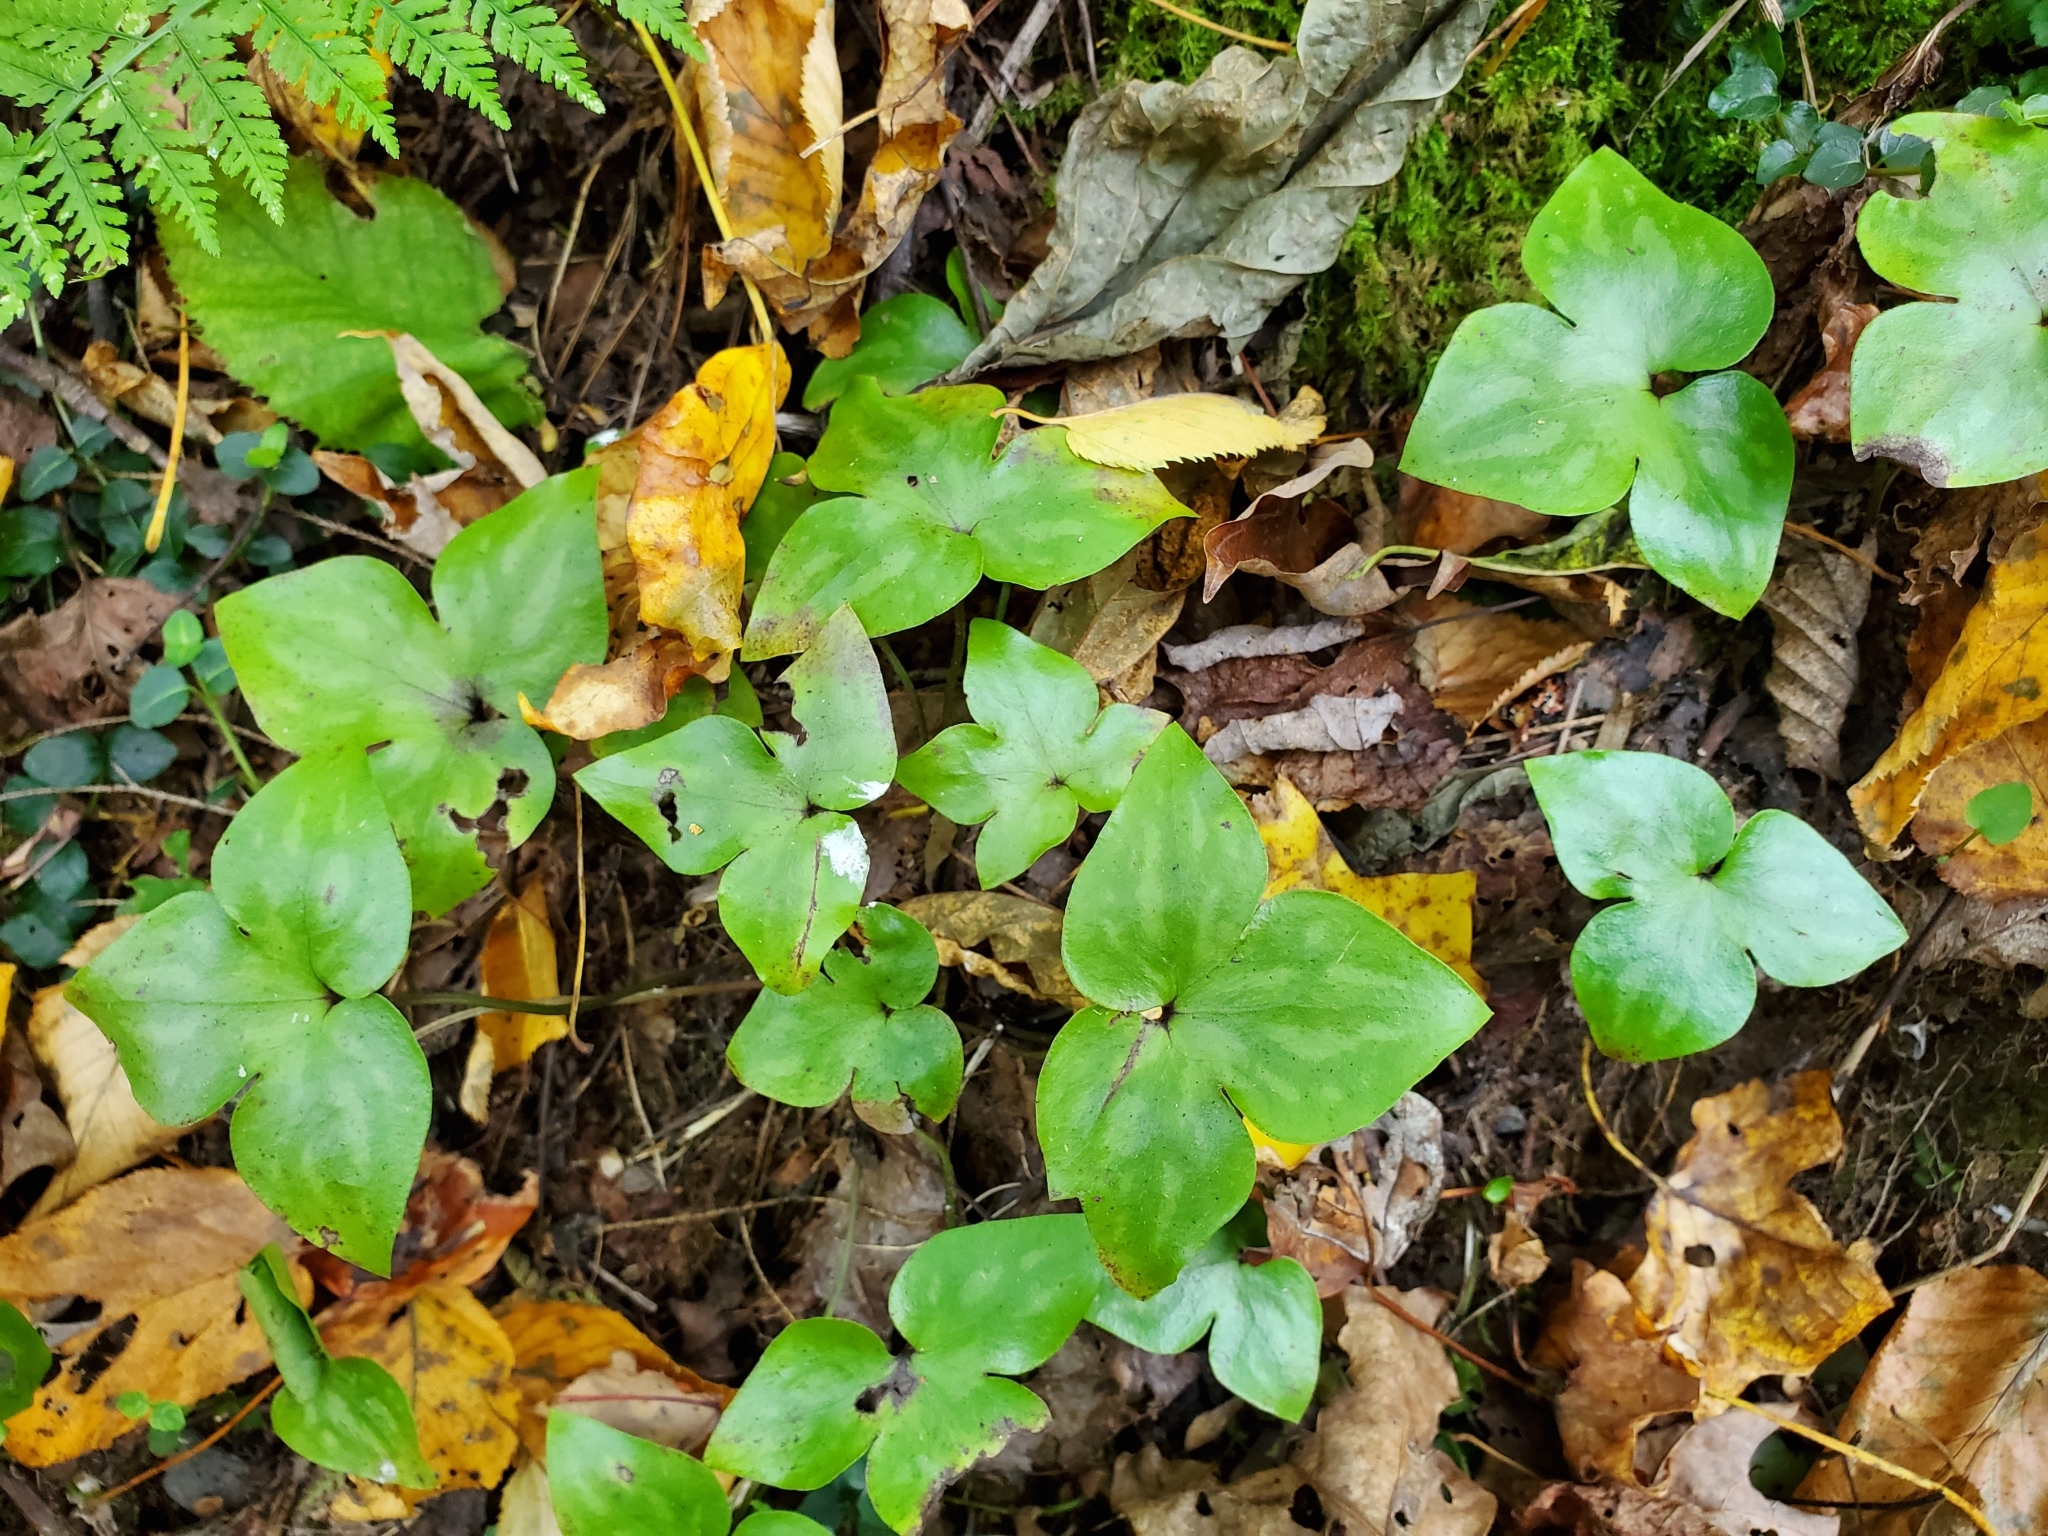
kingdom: Plantae
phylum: Tracheophyta
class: Magnoliopsida
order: Ranunculales
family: Ranunculaceae
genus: Hepatica
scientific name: Hepatica acutiloba
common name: Sharp-lobed hepatica
